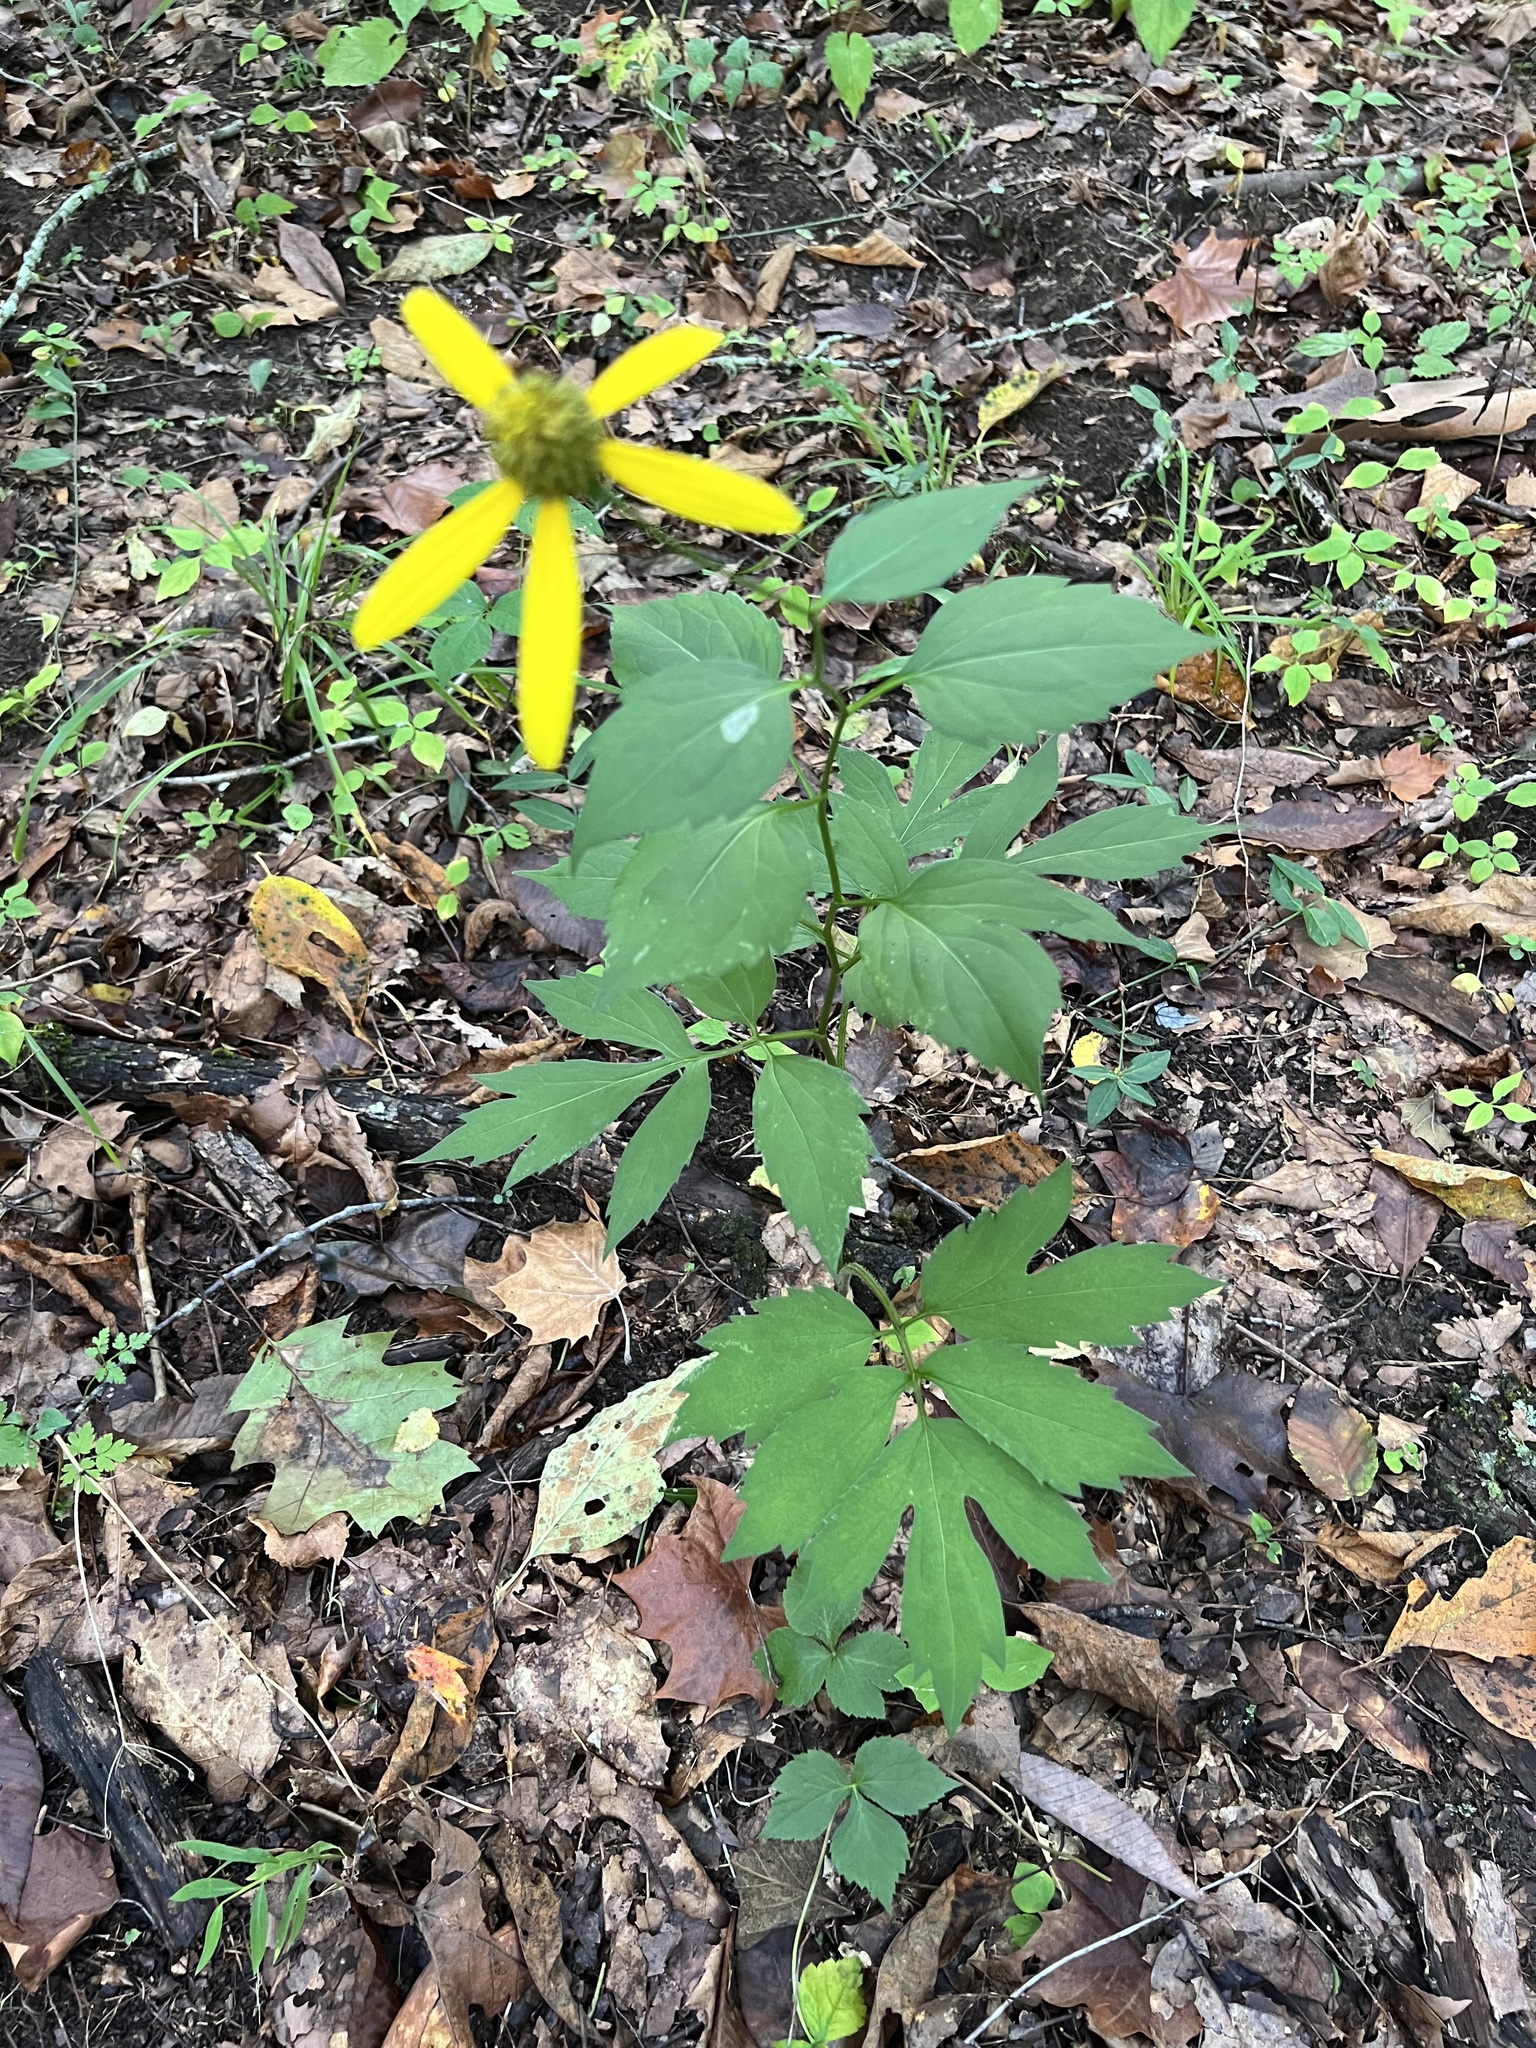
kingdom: Plantae
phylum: Tracheophyta
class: Magnoliopsida
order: Asterales
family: Asteraceae
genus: Rudbeckia
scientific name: Rudbeckia laciniata
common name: Coneflower
